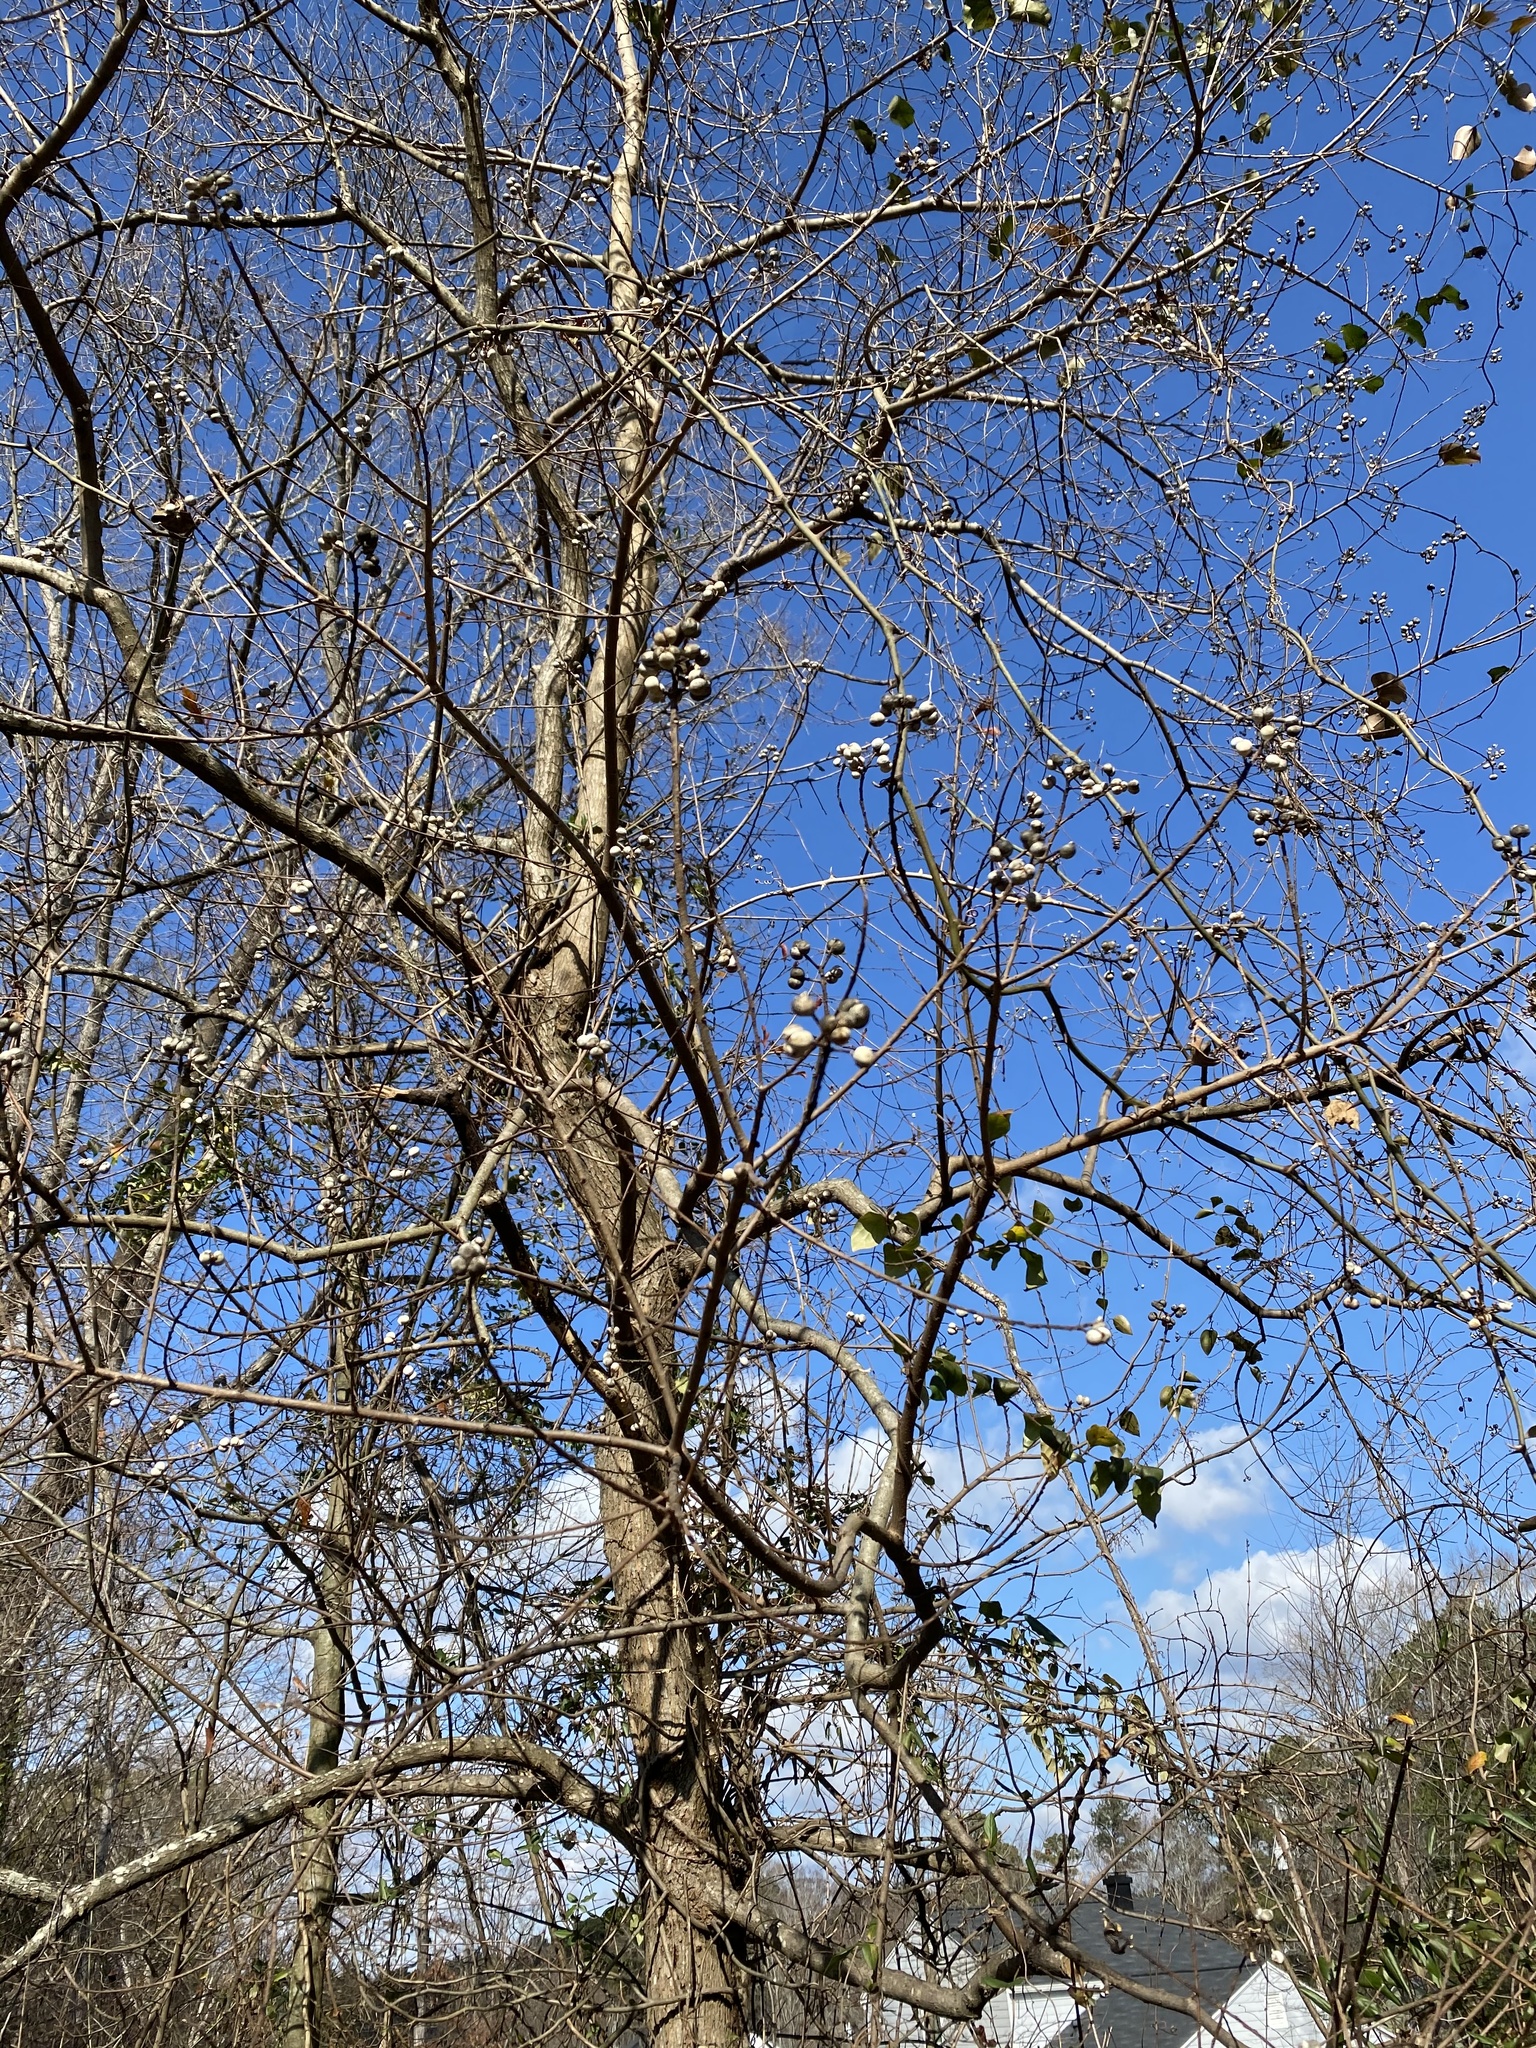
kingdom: Plantae
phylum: Tracheophyta
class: Magnoliopsida
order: Malpighiales
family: Euphorbiaceae
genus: Triadica
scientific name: Triadica sebifera
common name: Chinese tallow
